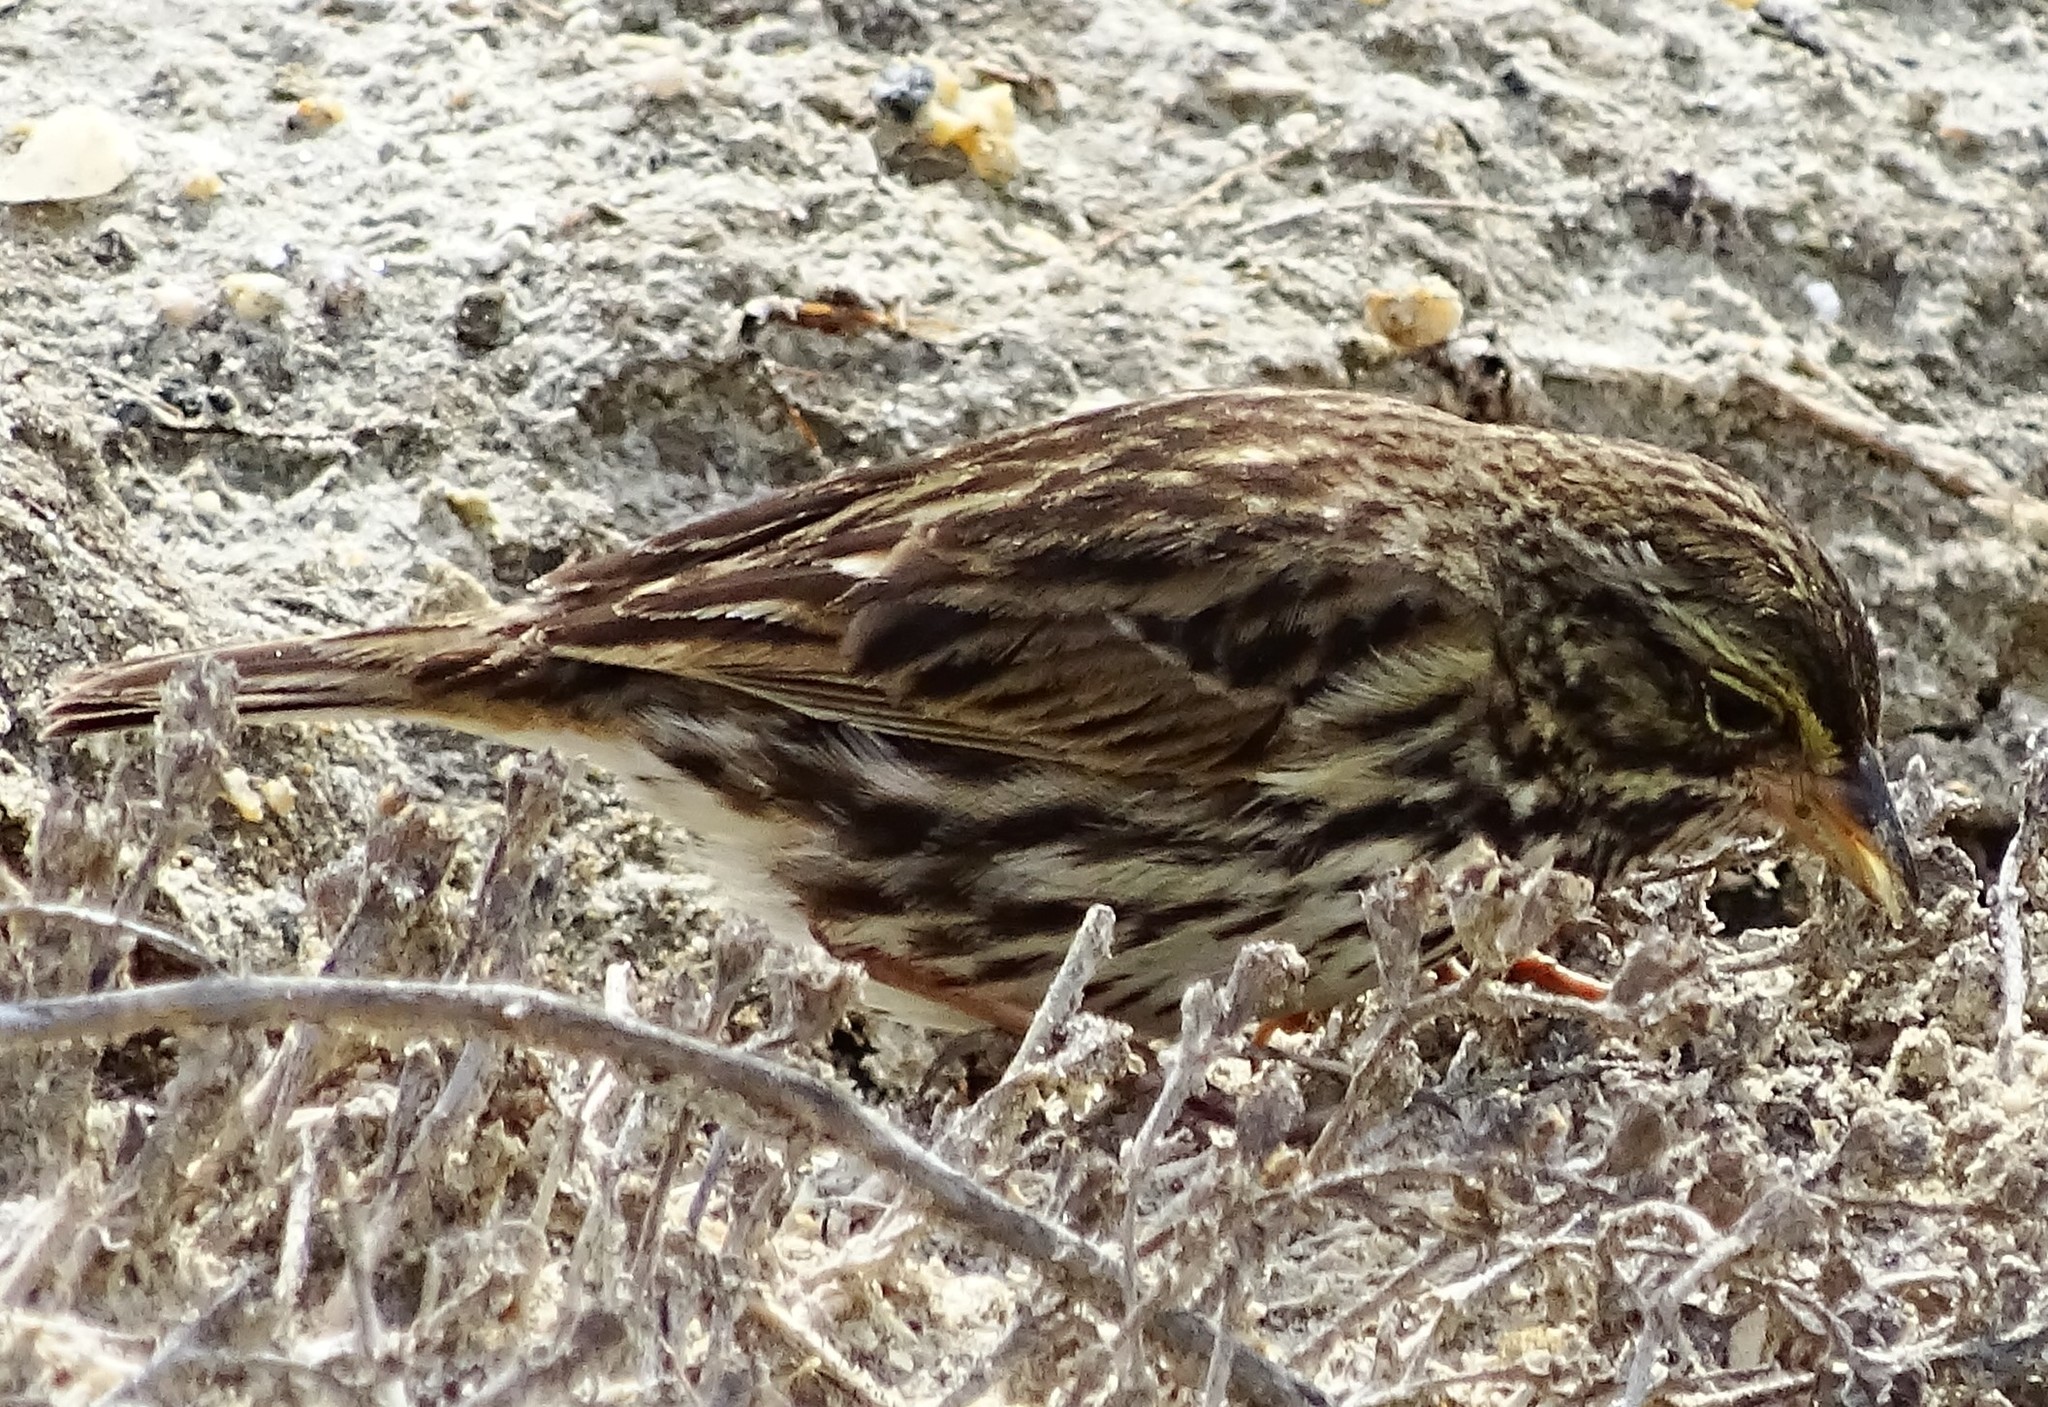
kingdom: Animalia
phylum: Chordata
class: Aves
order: Passeriformes
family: Passerellidae
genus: Passerculus
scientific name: Passerculus sandwichensis
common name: Savannah sparrow
